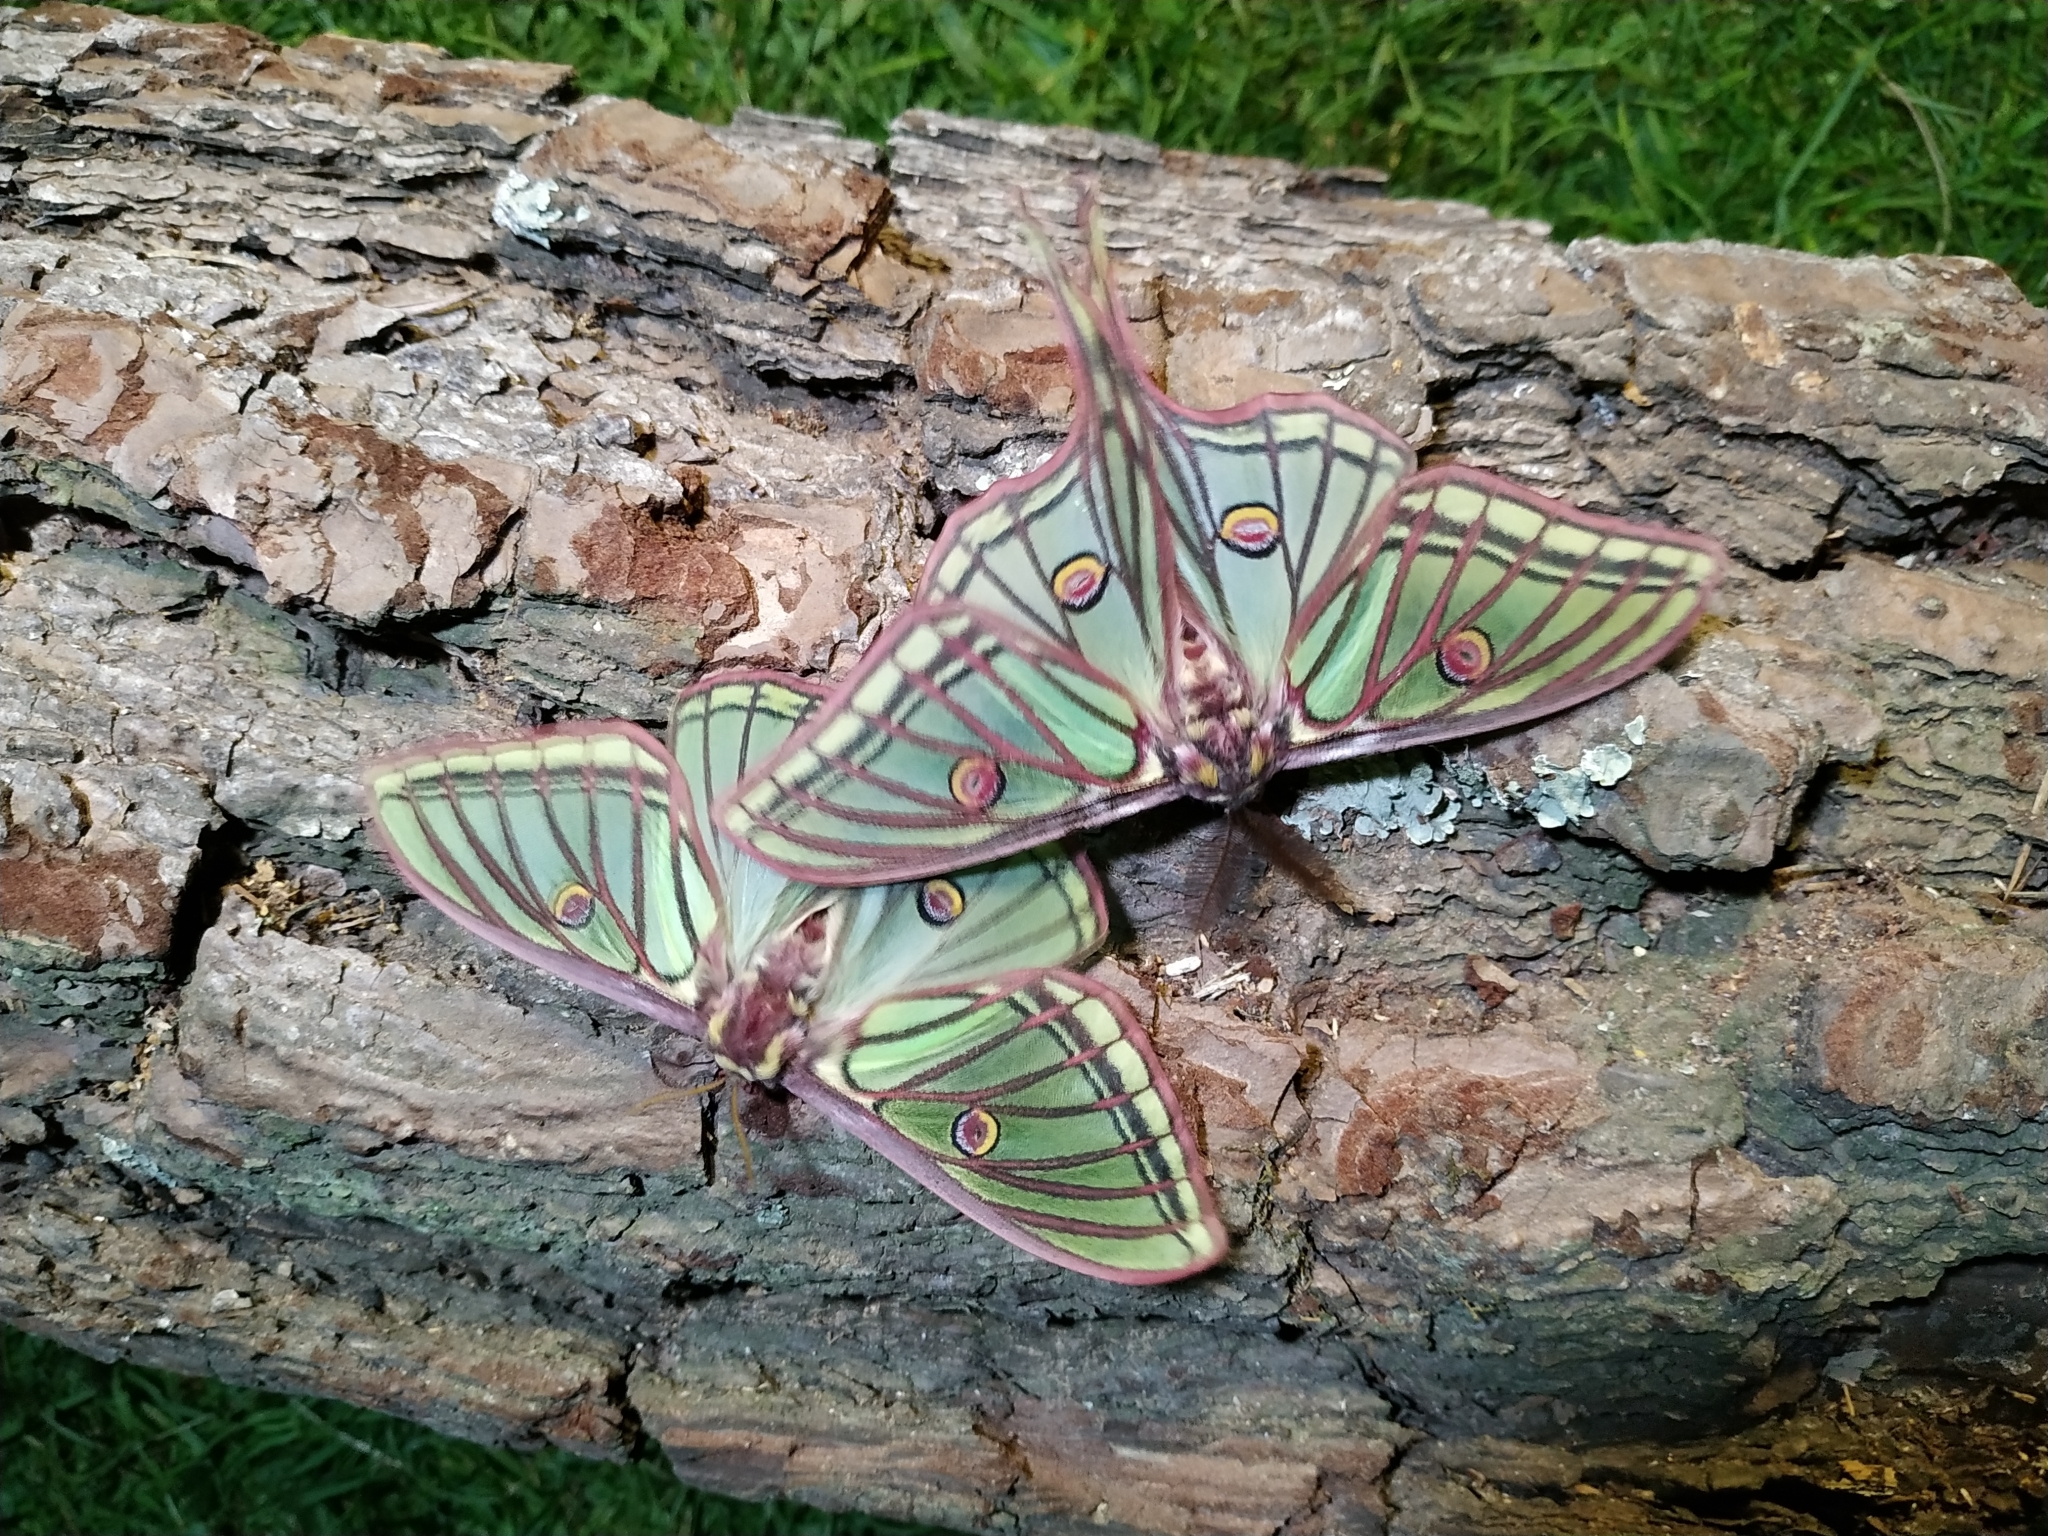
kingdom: Animalia
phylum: Arthropoda
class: Insecta
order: Lepidoptera
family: Saturniidae
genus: Graellsia
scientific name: Graellsia isabellae
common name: Spanish moon moth
